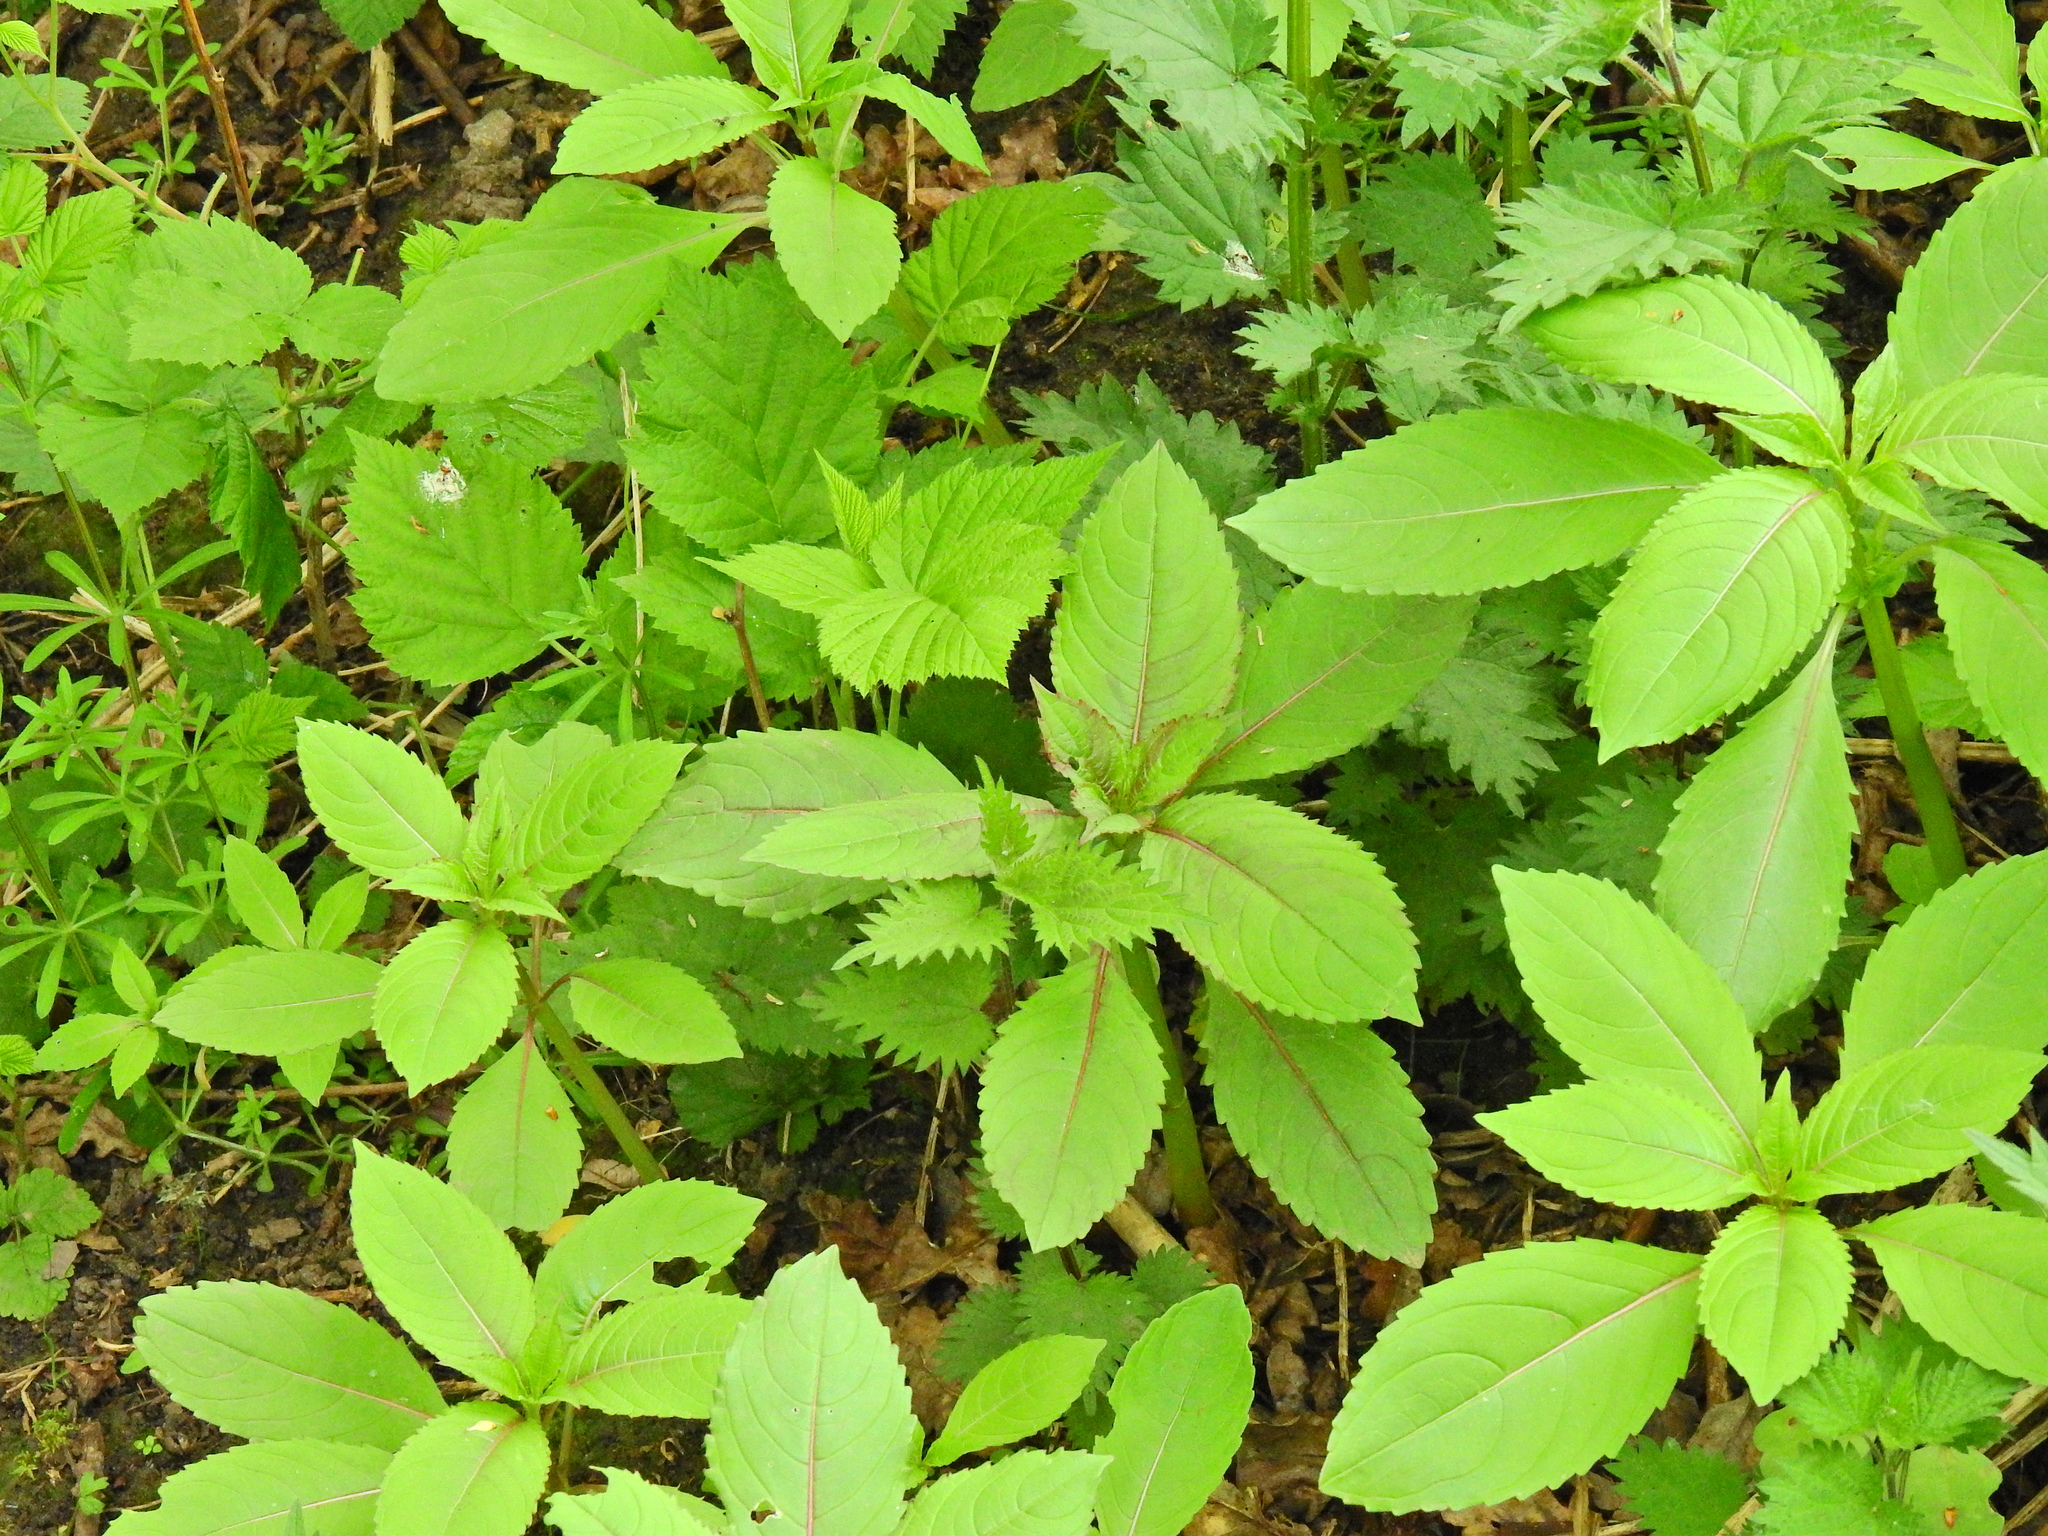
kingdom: Plantae
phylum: Tracheophyta
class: Magnoliopsida
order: Ericales
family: Balsaminaceae
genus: Impatiens
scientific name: Impatiens glandulifera
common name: Himalayan balsam
